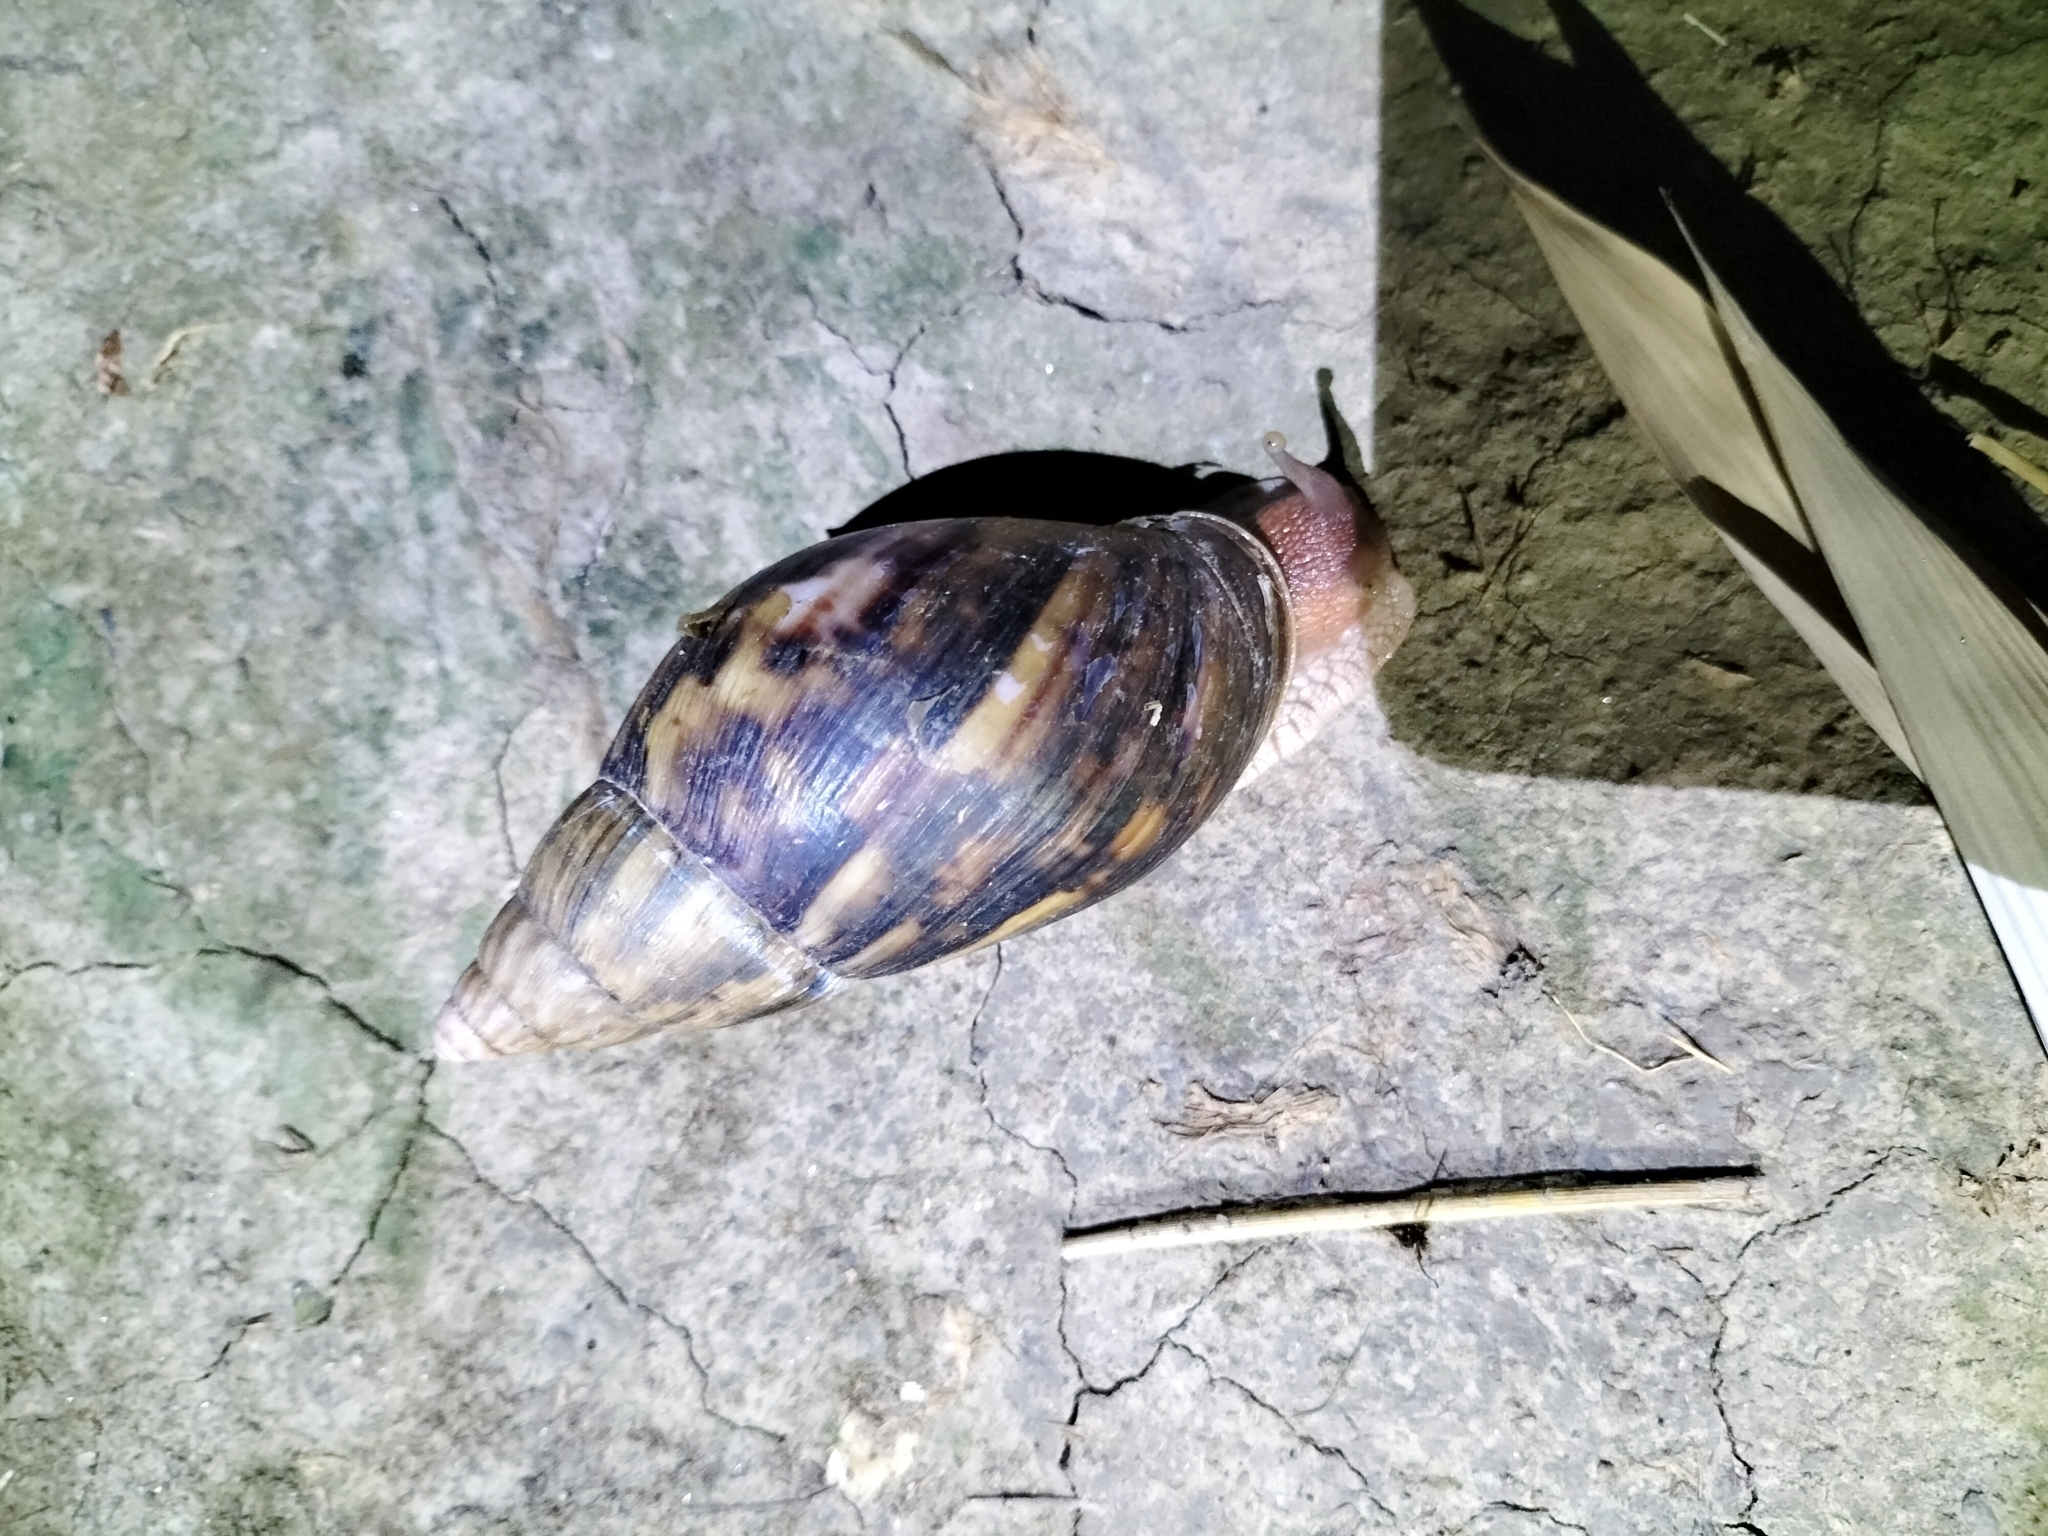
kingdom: Animalia
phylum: Mollusca
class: Gastropoda
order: Stylommatophora
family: Achatinidae
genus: Lissachatina
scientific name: Lissachatina immaculata
